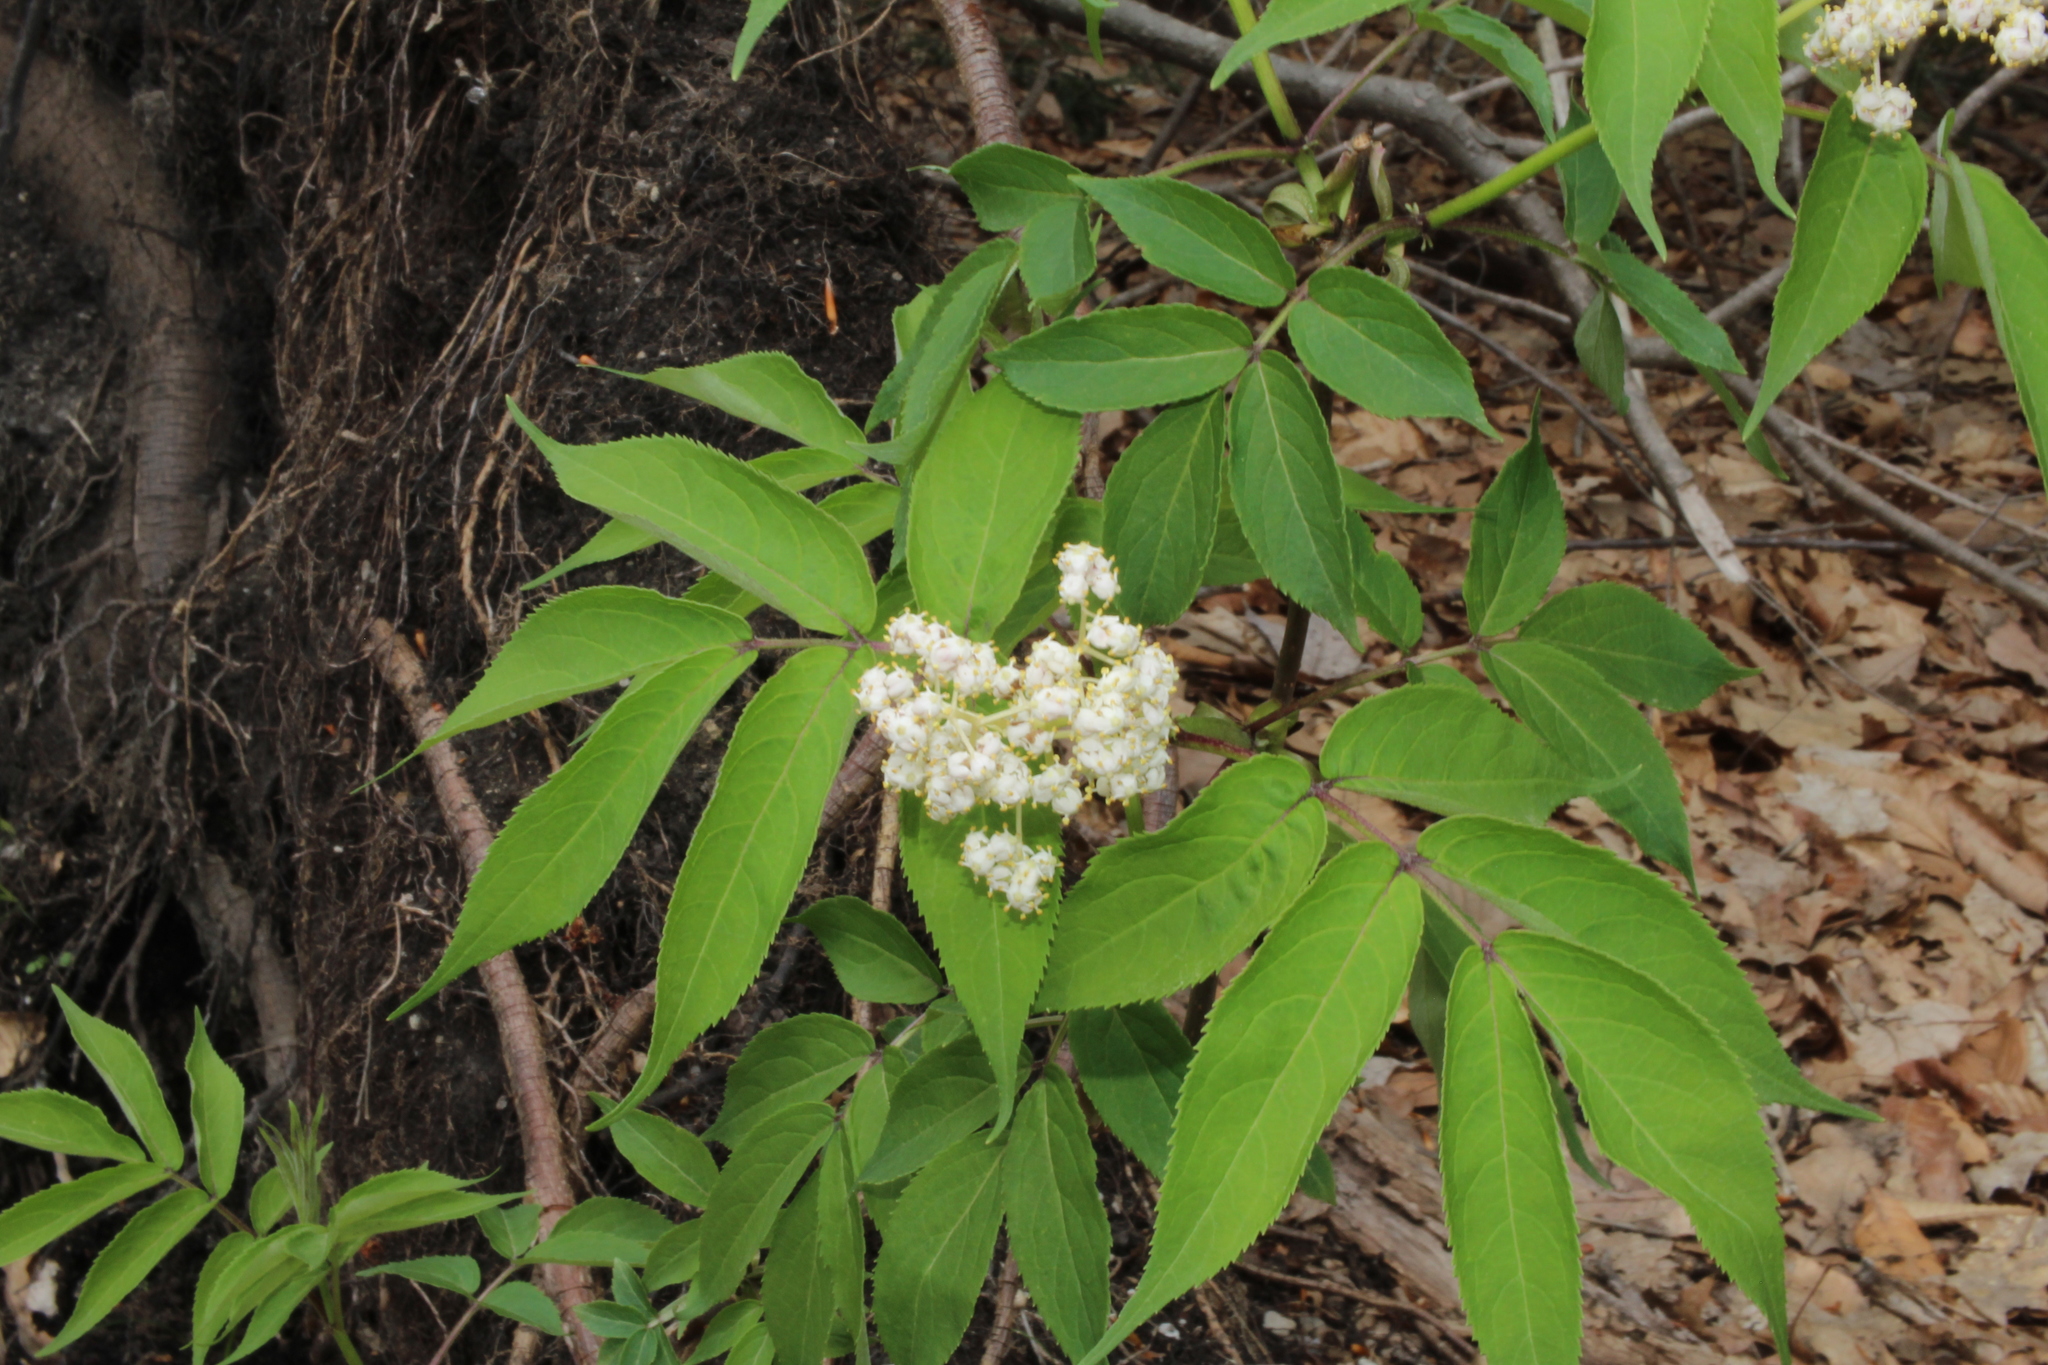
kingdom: Plantae
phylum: Tracheophyta
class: Magnoliopsida
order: Dipsacales
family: Viburnaceae
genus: Sambucus
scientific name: Sambucus racemosa
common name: Red-berried elder
